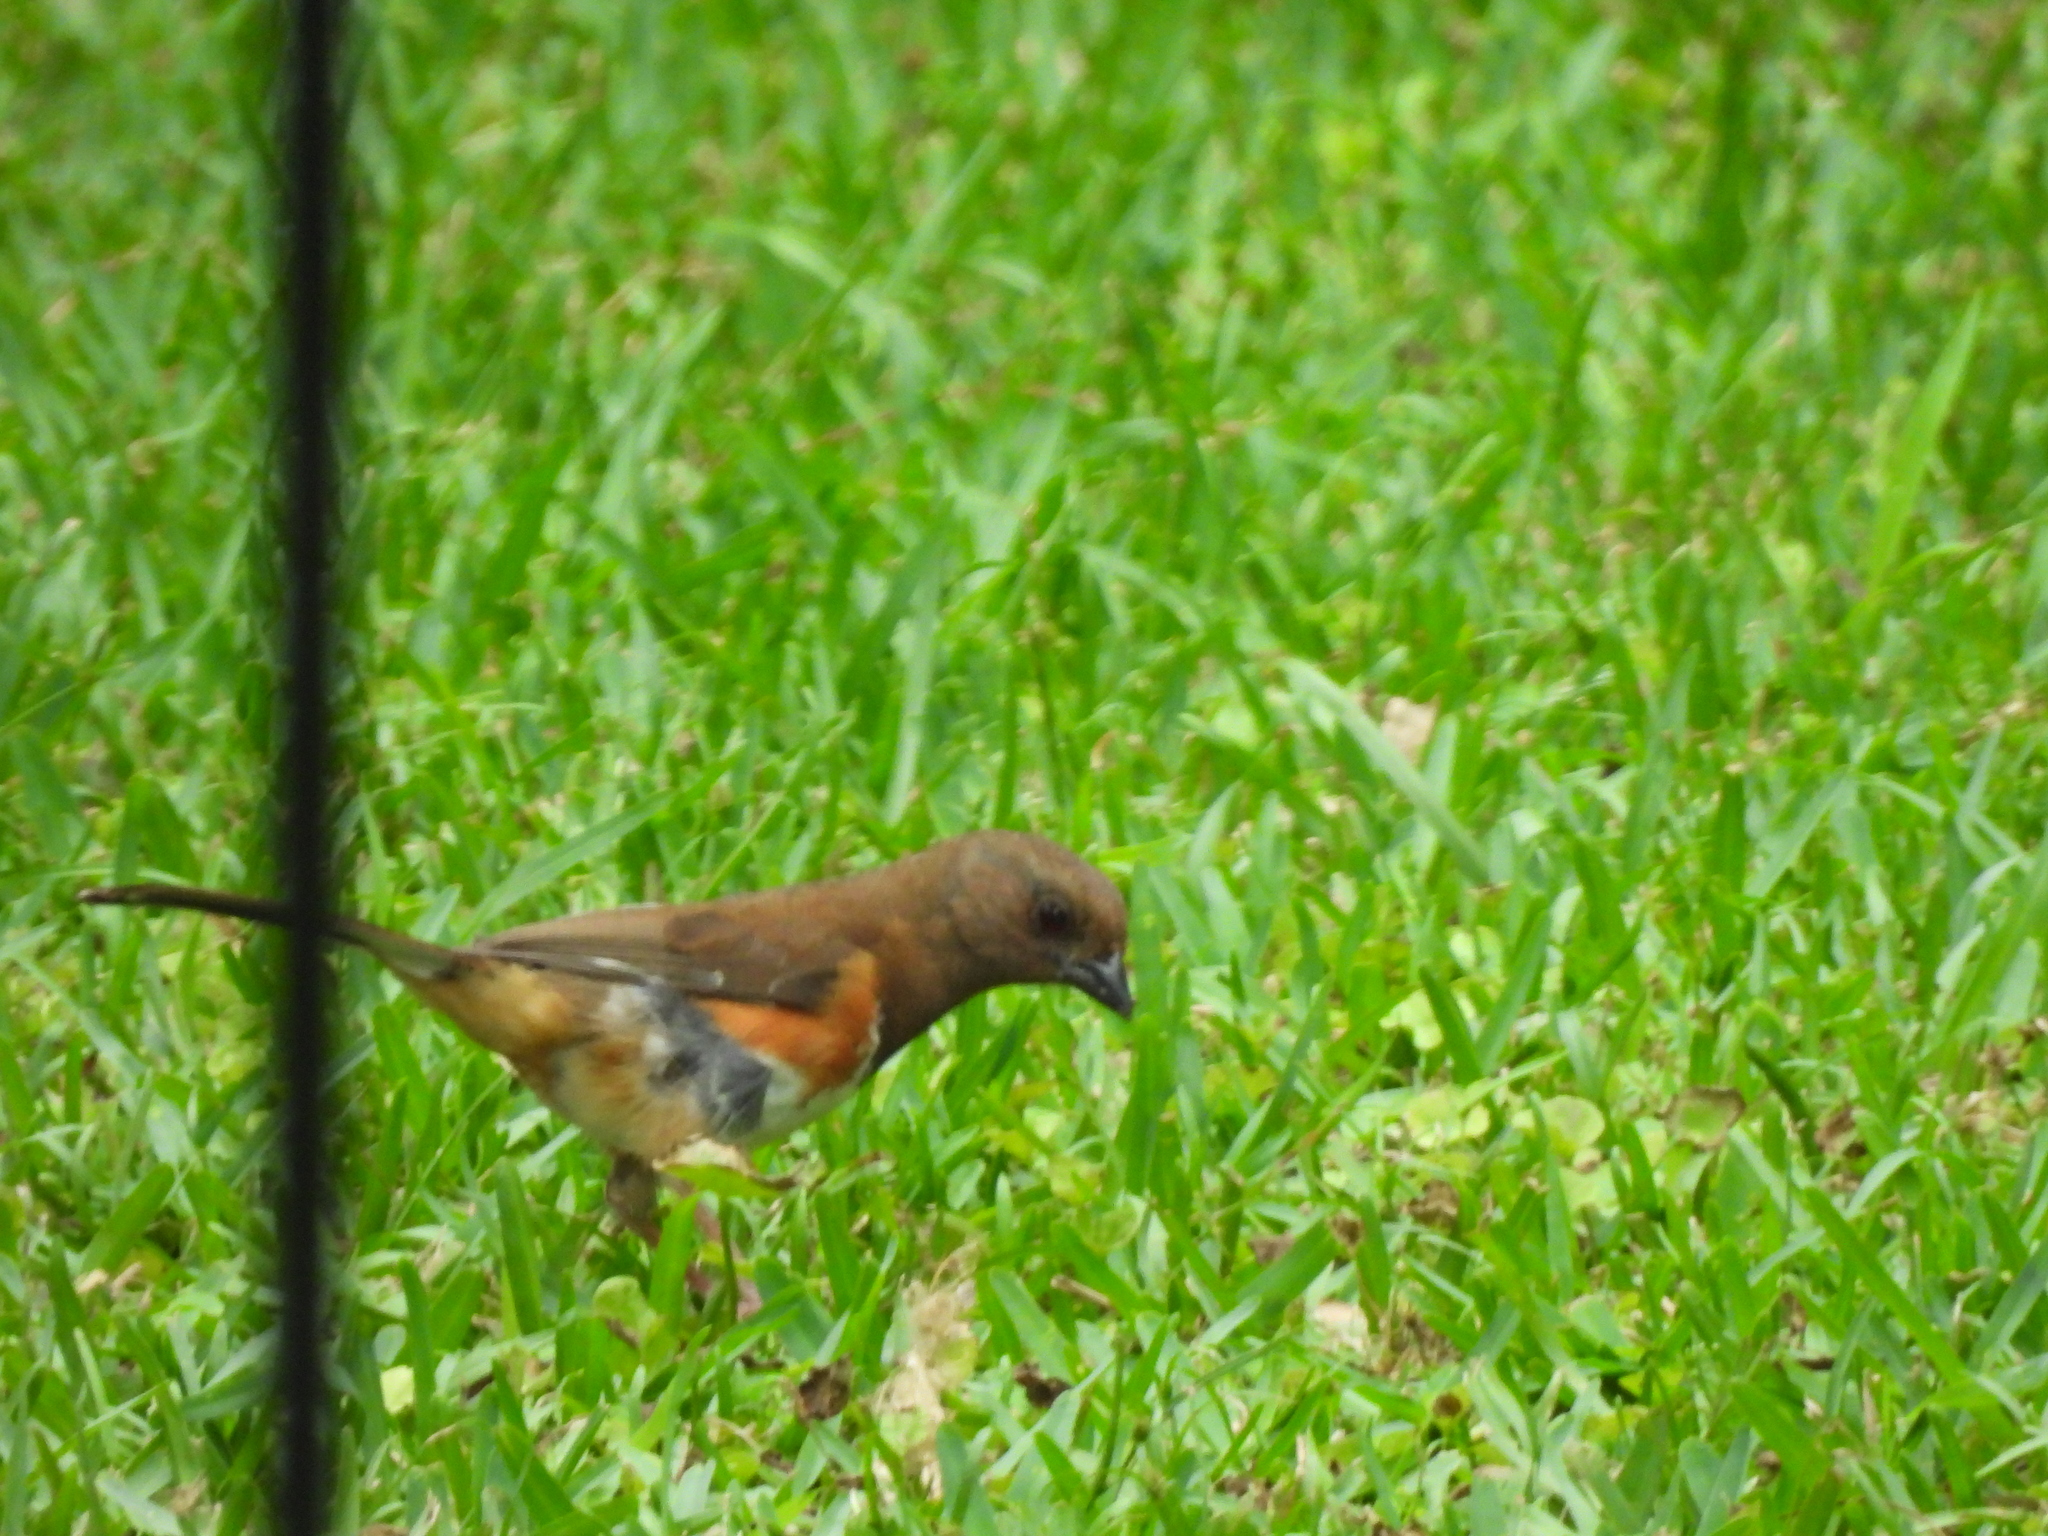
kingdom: Animalia
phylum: Chordata
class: Aves
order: Passeriformes
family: Passerellidae
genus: Pipilo
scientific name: Pipilo erythrophthalmus
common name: Eastern towhee
